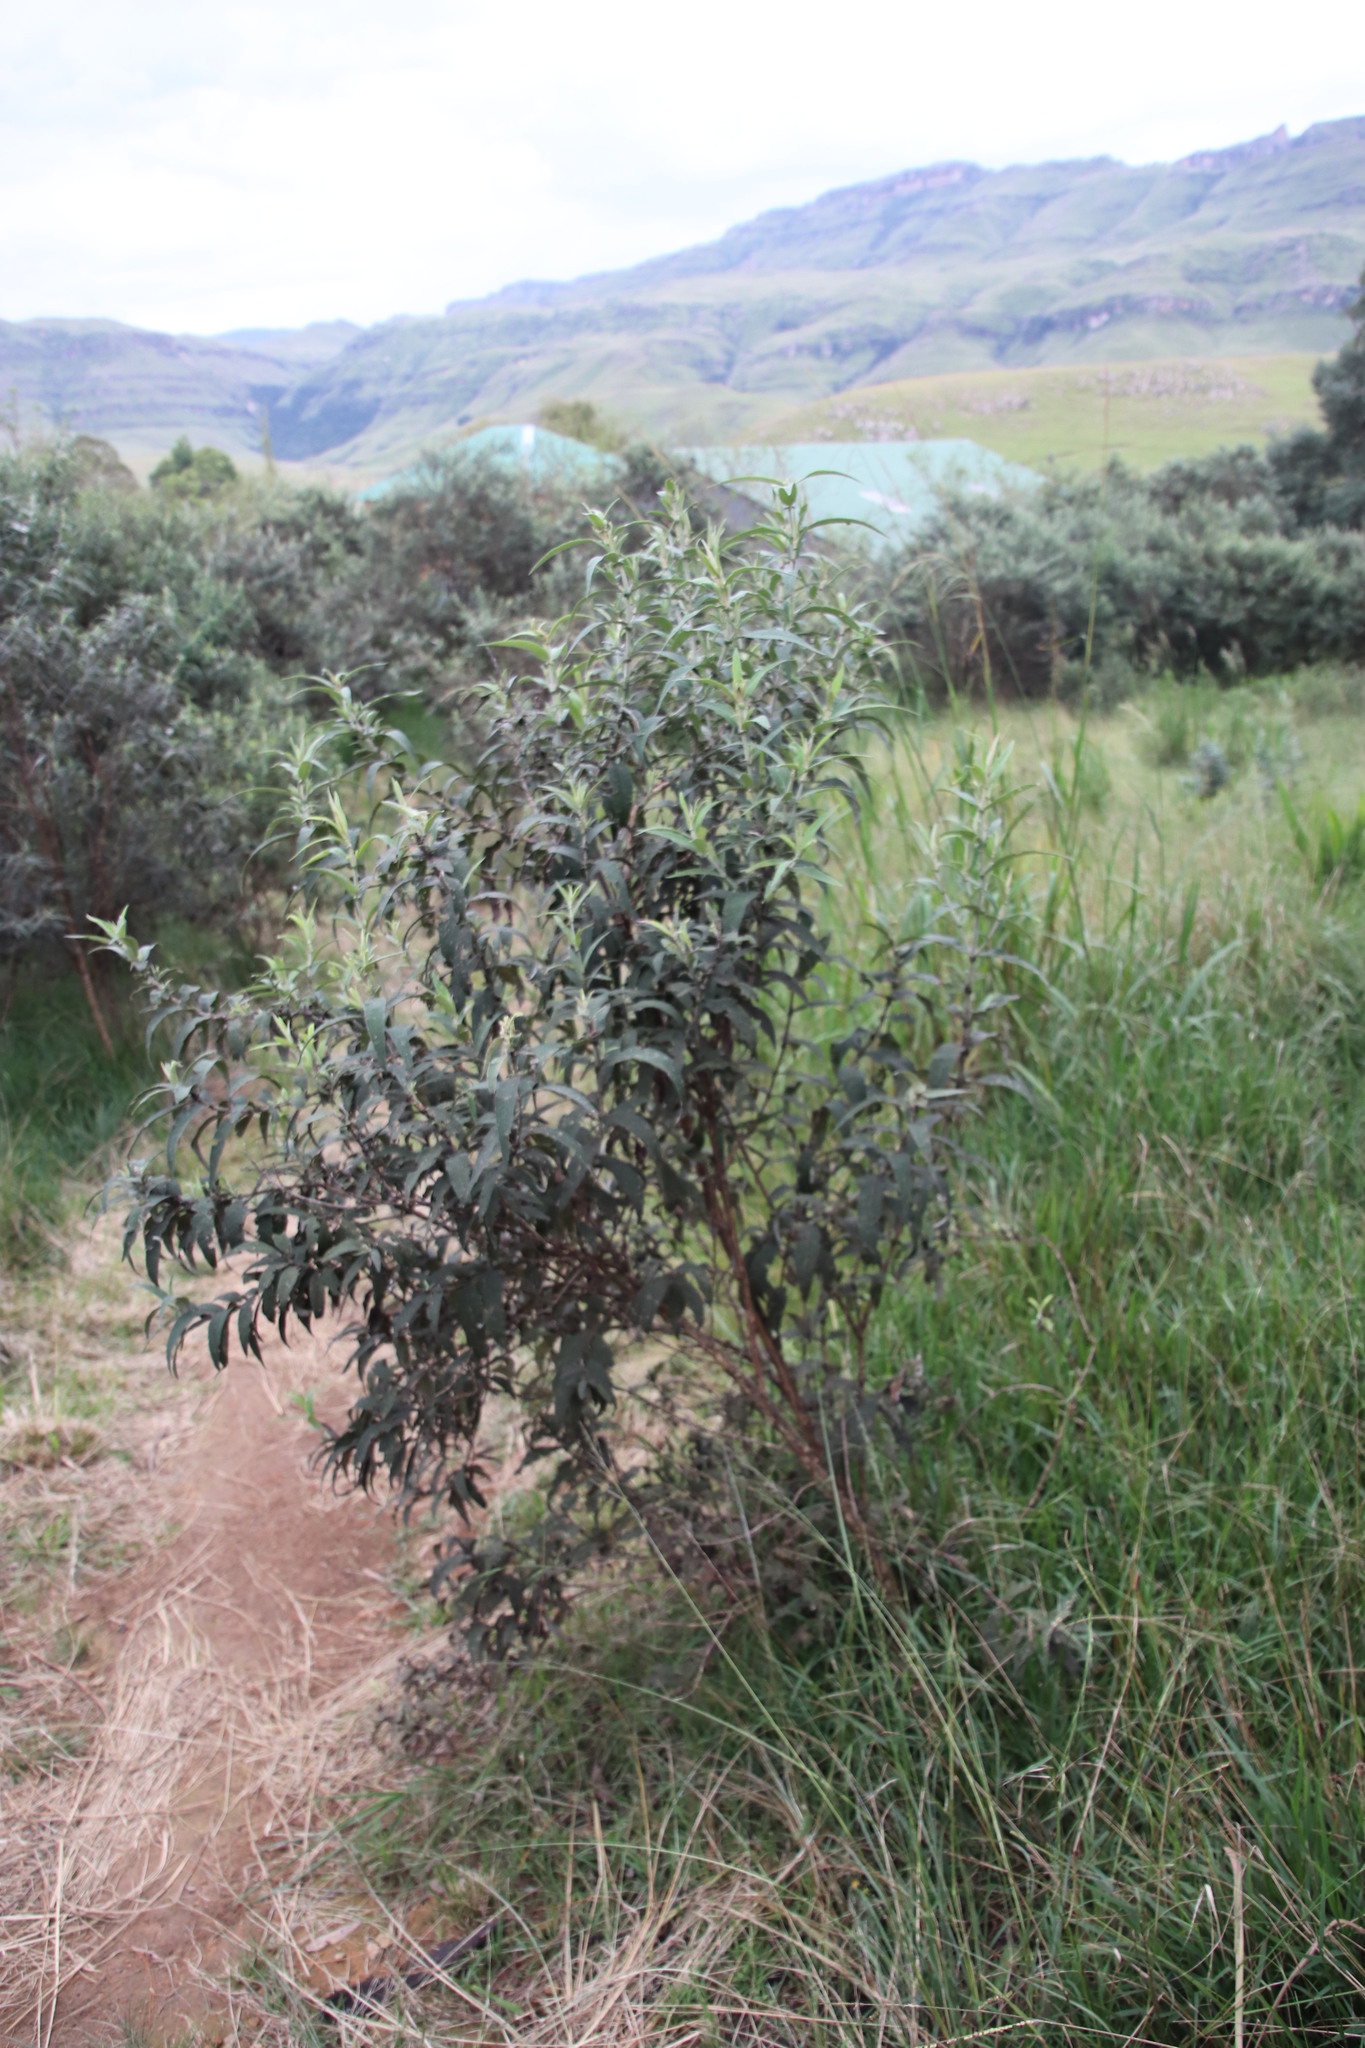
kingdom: Plantae
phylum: Tracheophyta
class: Magnoliopsida
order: Lamiales
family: Scrophulariaceae
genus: Buddleja
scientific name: Buddleja salviifolia
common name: Sagewood
